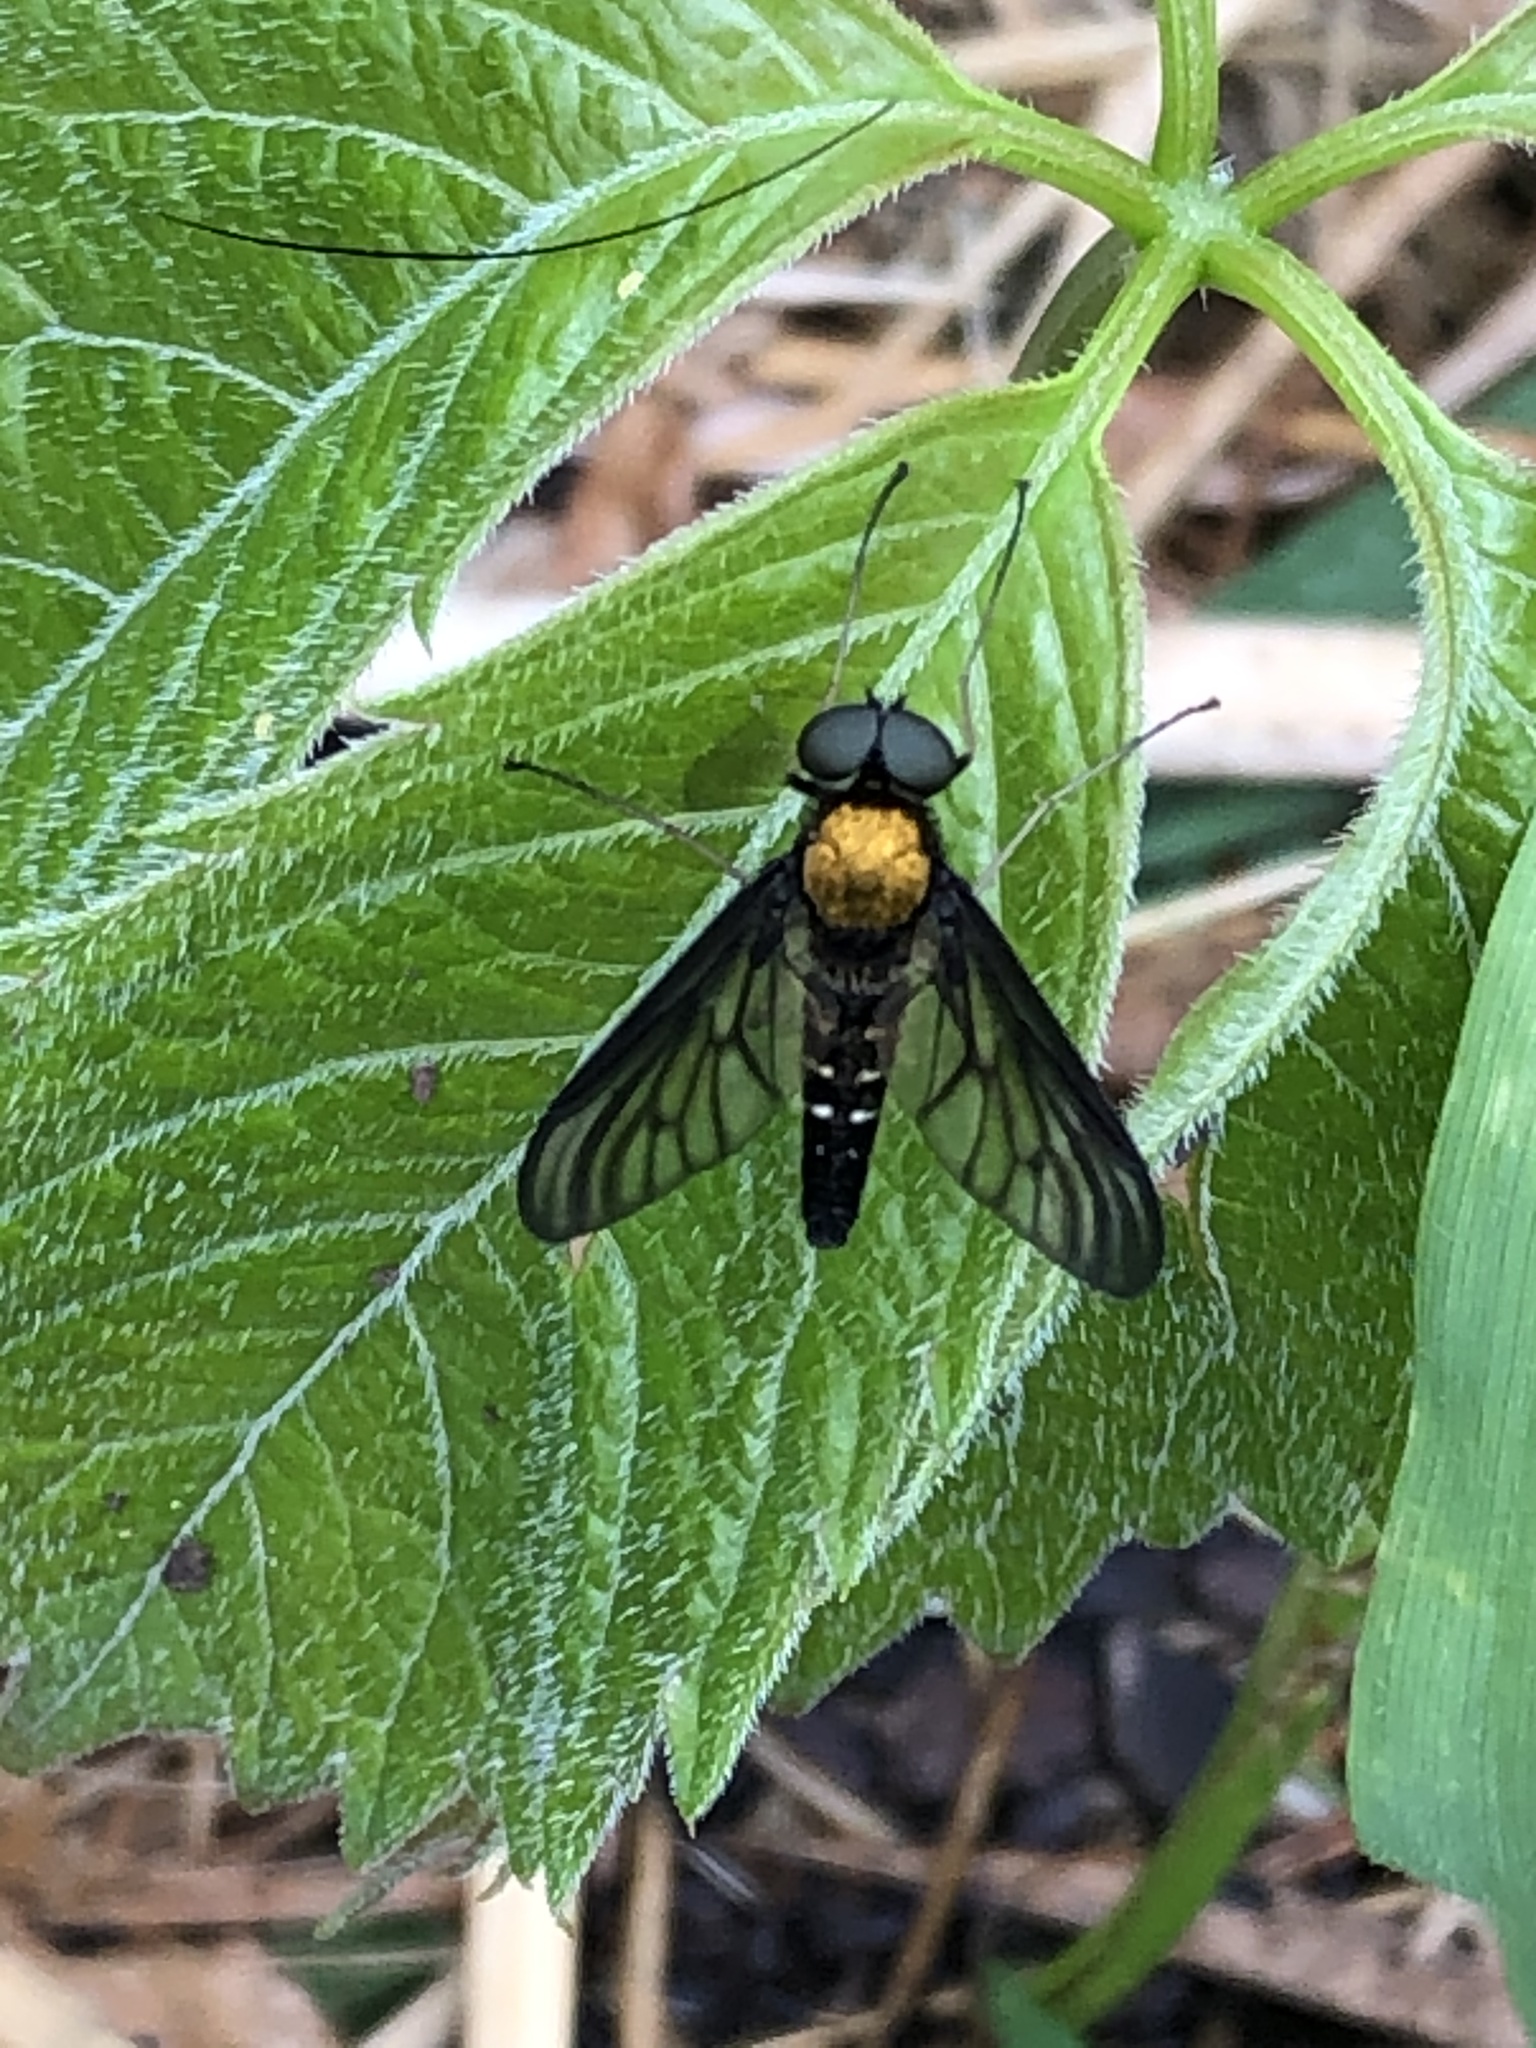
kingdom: Animalia
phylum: Arthropoda
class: Insecta
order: Diptera
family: Rhagionidae
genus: Chrysopilus
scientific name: Chrysopilus thoracicus
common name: Golden-backed snipe fly
